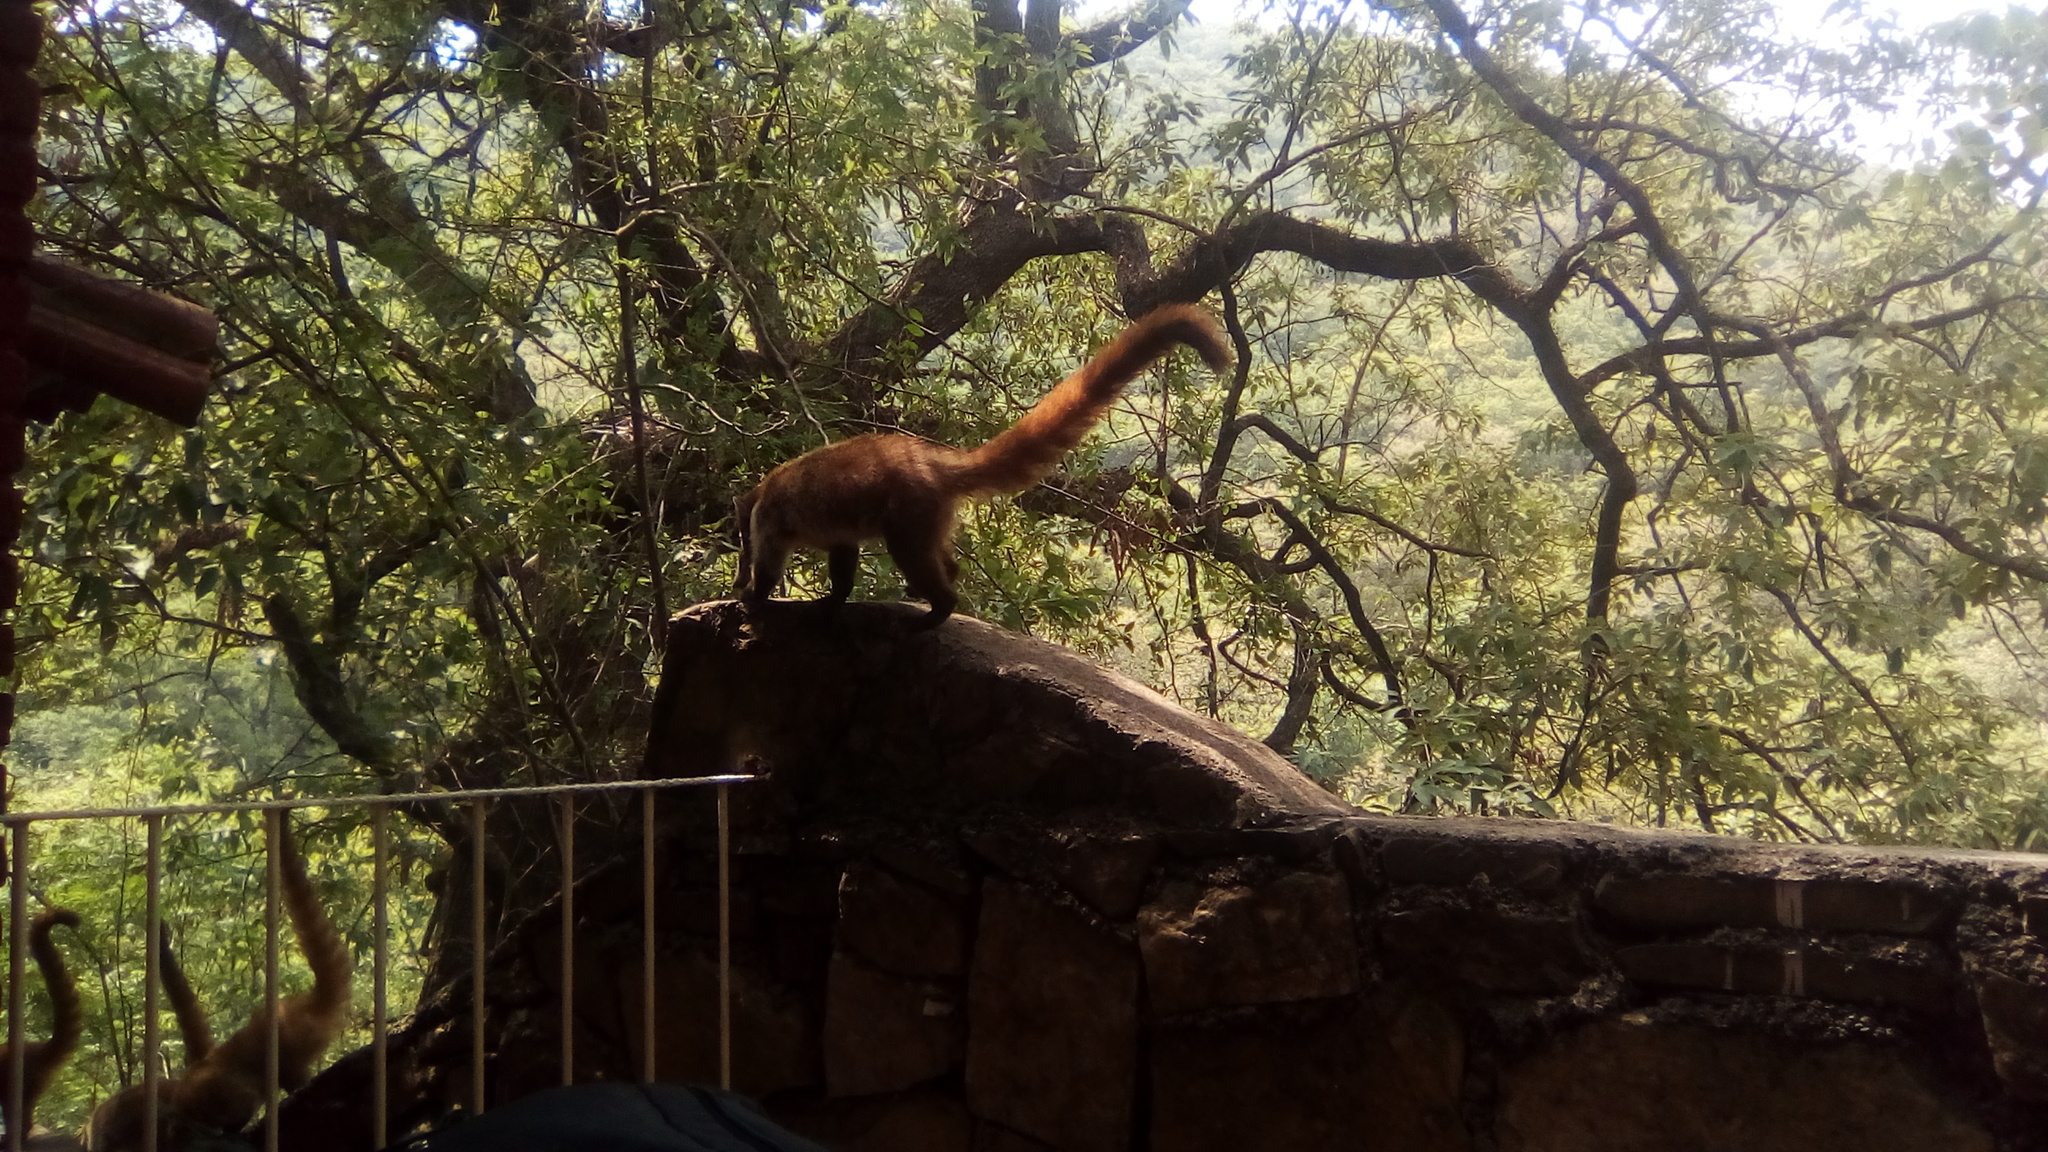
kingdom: Animalia
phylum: Chordata
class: Mammalia
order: Carnivora
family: Procyonidae
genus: Nasua
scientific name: Nasua narica
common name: White-nosed coati
